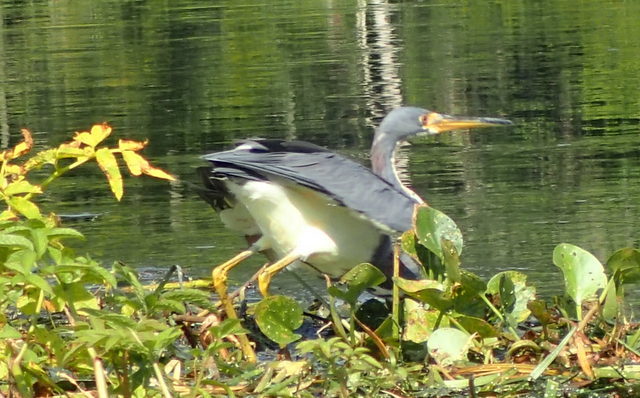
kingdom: Animalia
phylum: Chordata
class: Aves
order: Pelecaniformes
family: Ardeidae
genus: Egretta
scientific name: Egretta tricolor
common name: Tricolored heron
